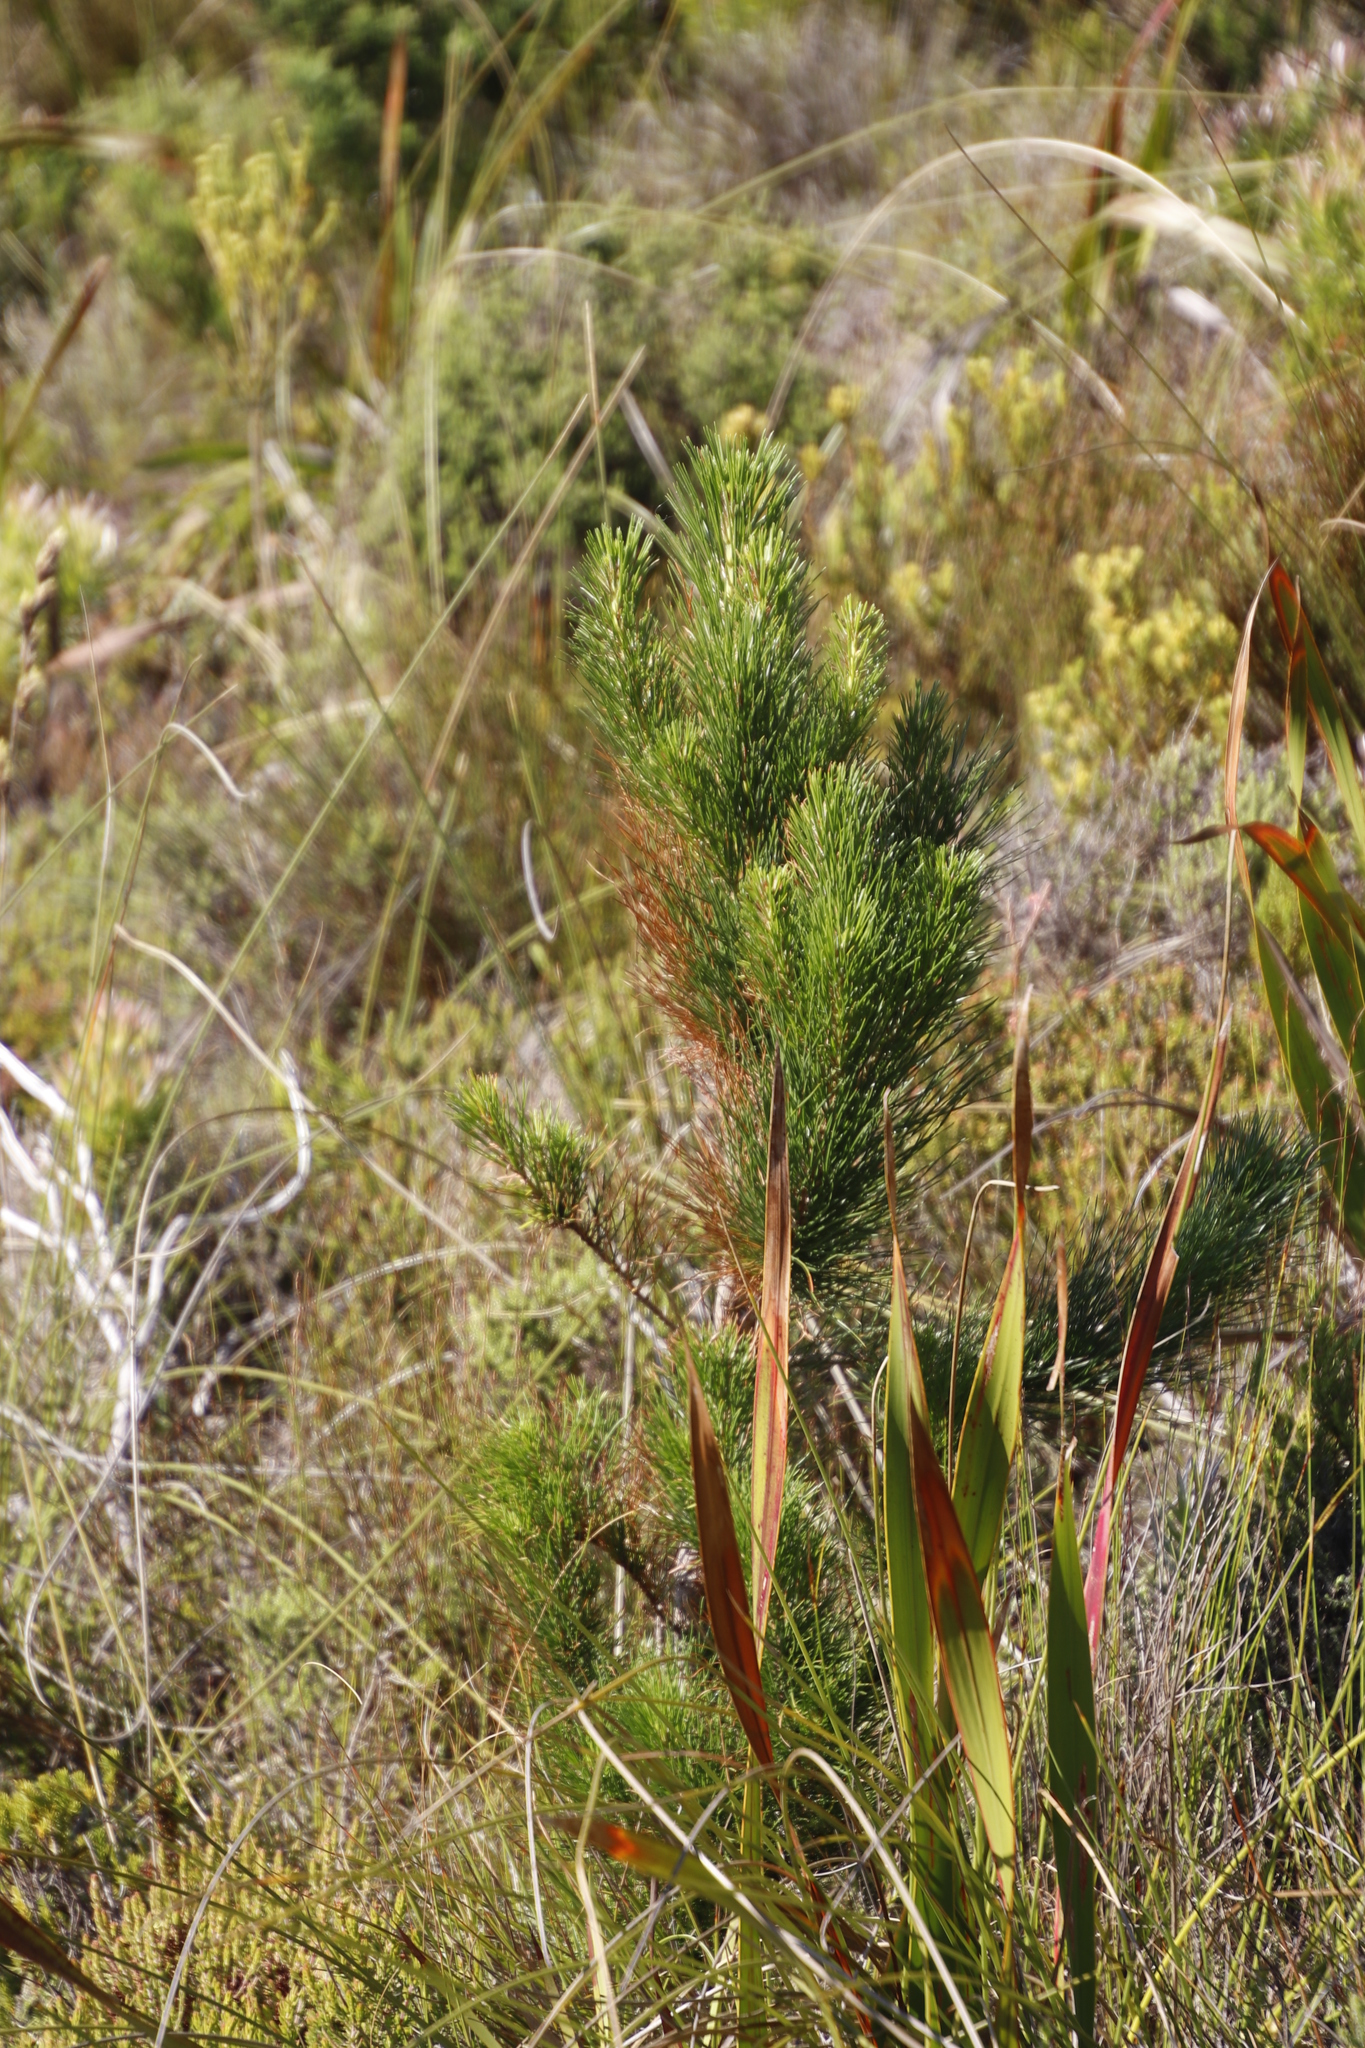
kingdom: Plantae
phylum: Tracheophyta
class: Pinopsida
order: Pinales
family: Pinaceae
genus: Pinus
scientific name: Pinus radiata
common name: Monterey pine
